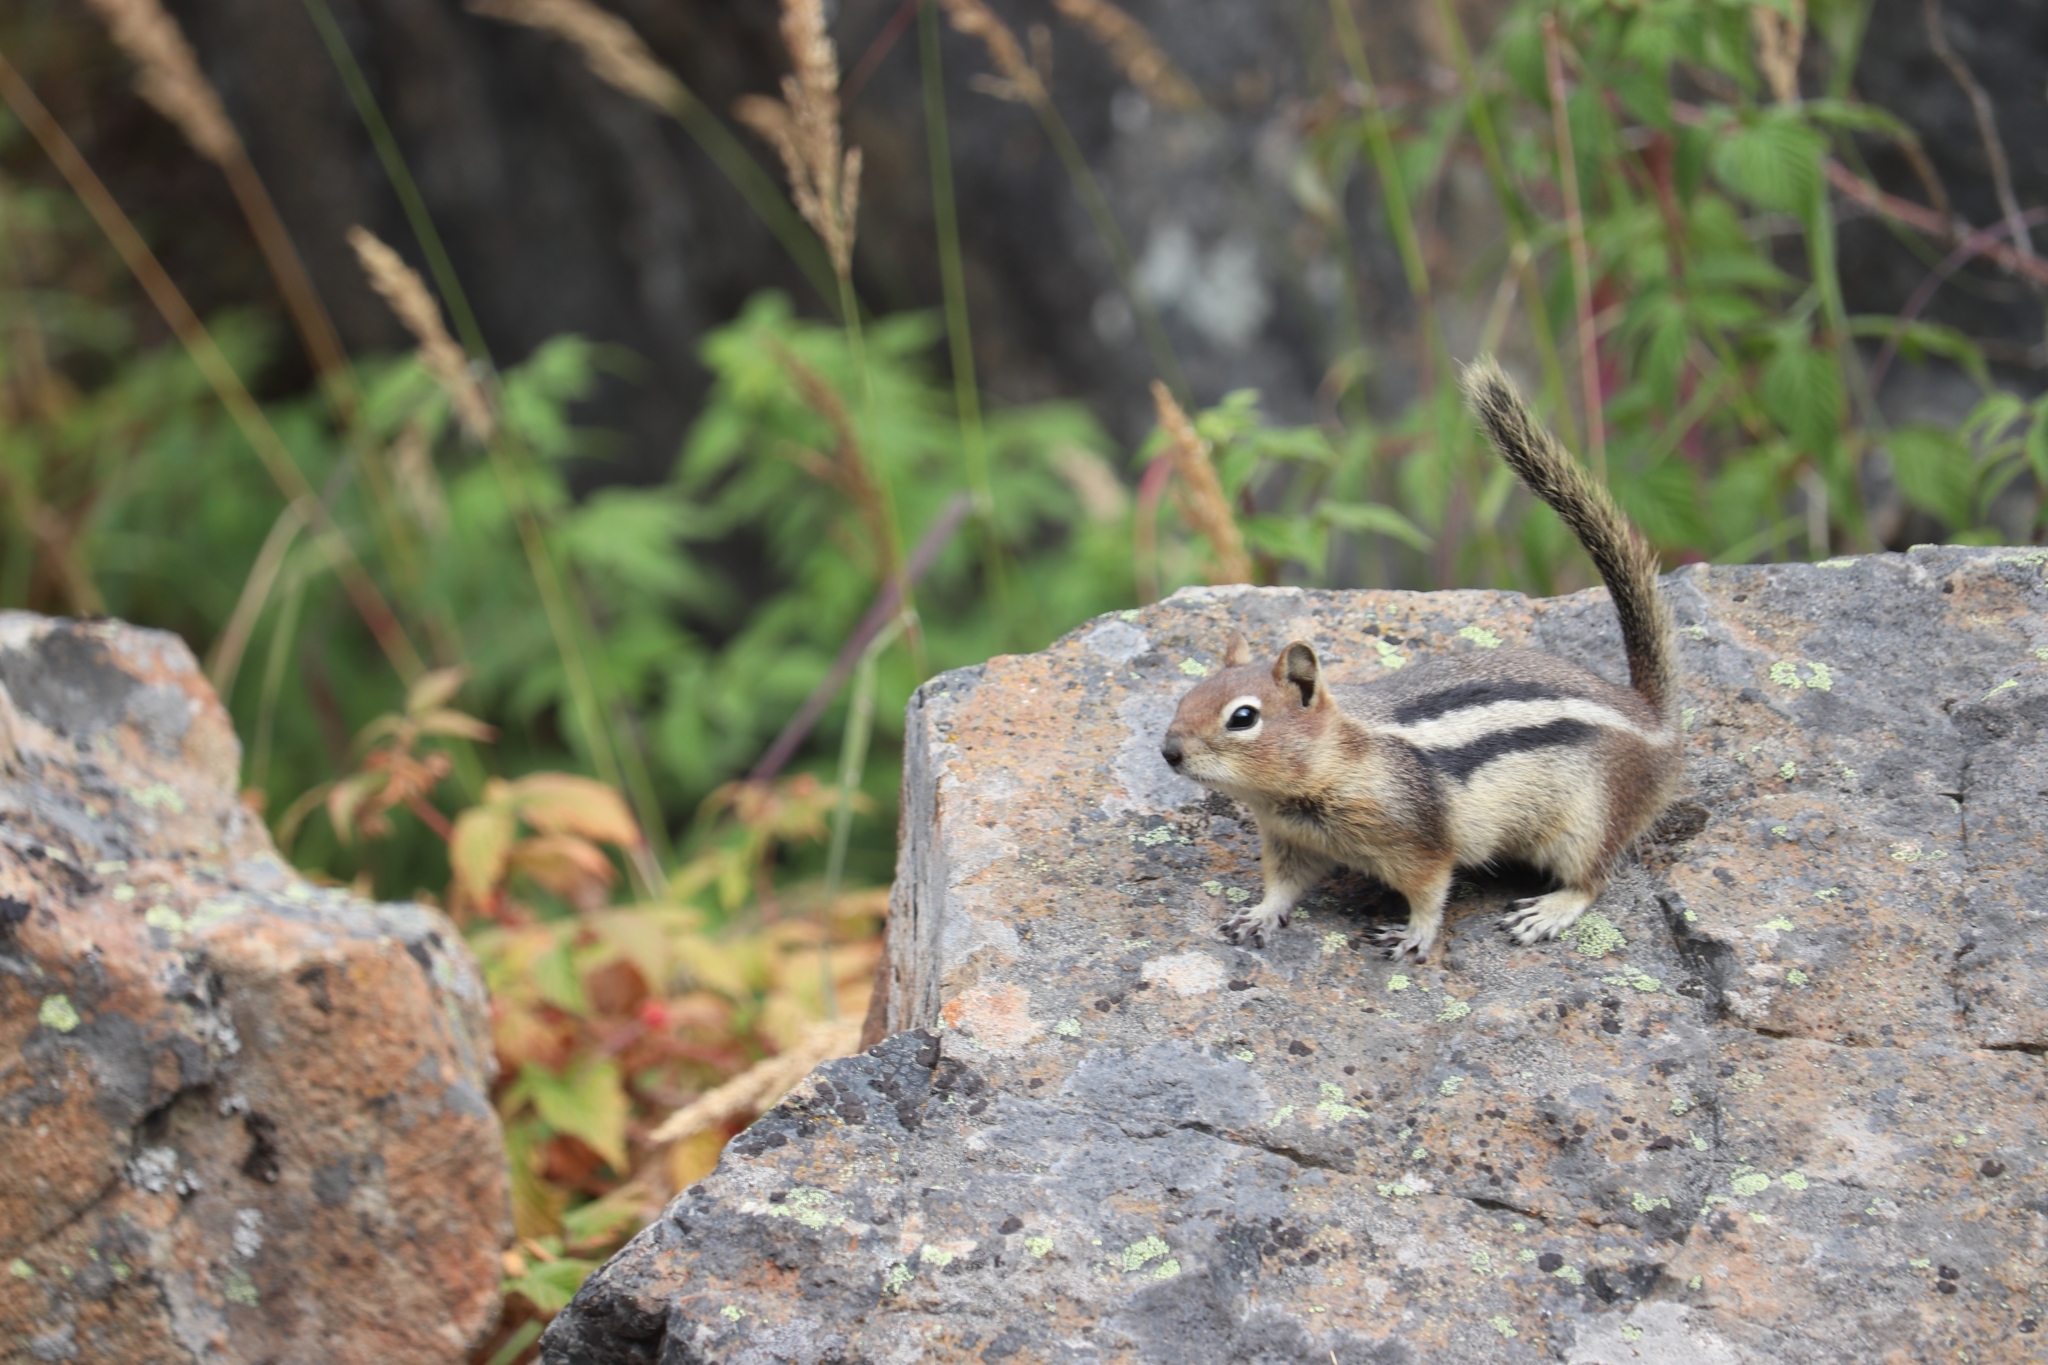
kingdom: Animalia
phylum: Chordata
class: Mammalia
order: Rodentia
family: Sciuridae
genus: Callospermophilus
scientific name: Callospermophilus lateralis
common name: Golden-mantled ground squirrel
